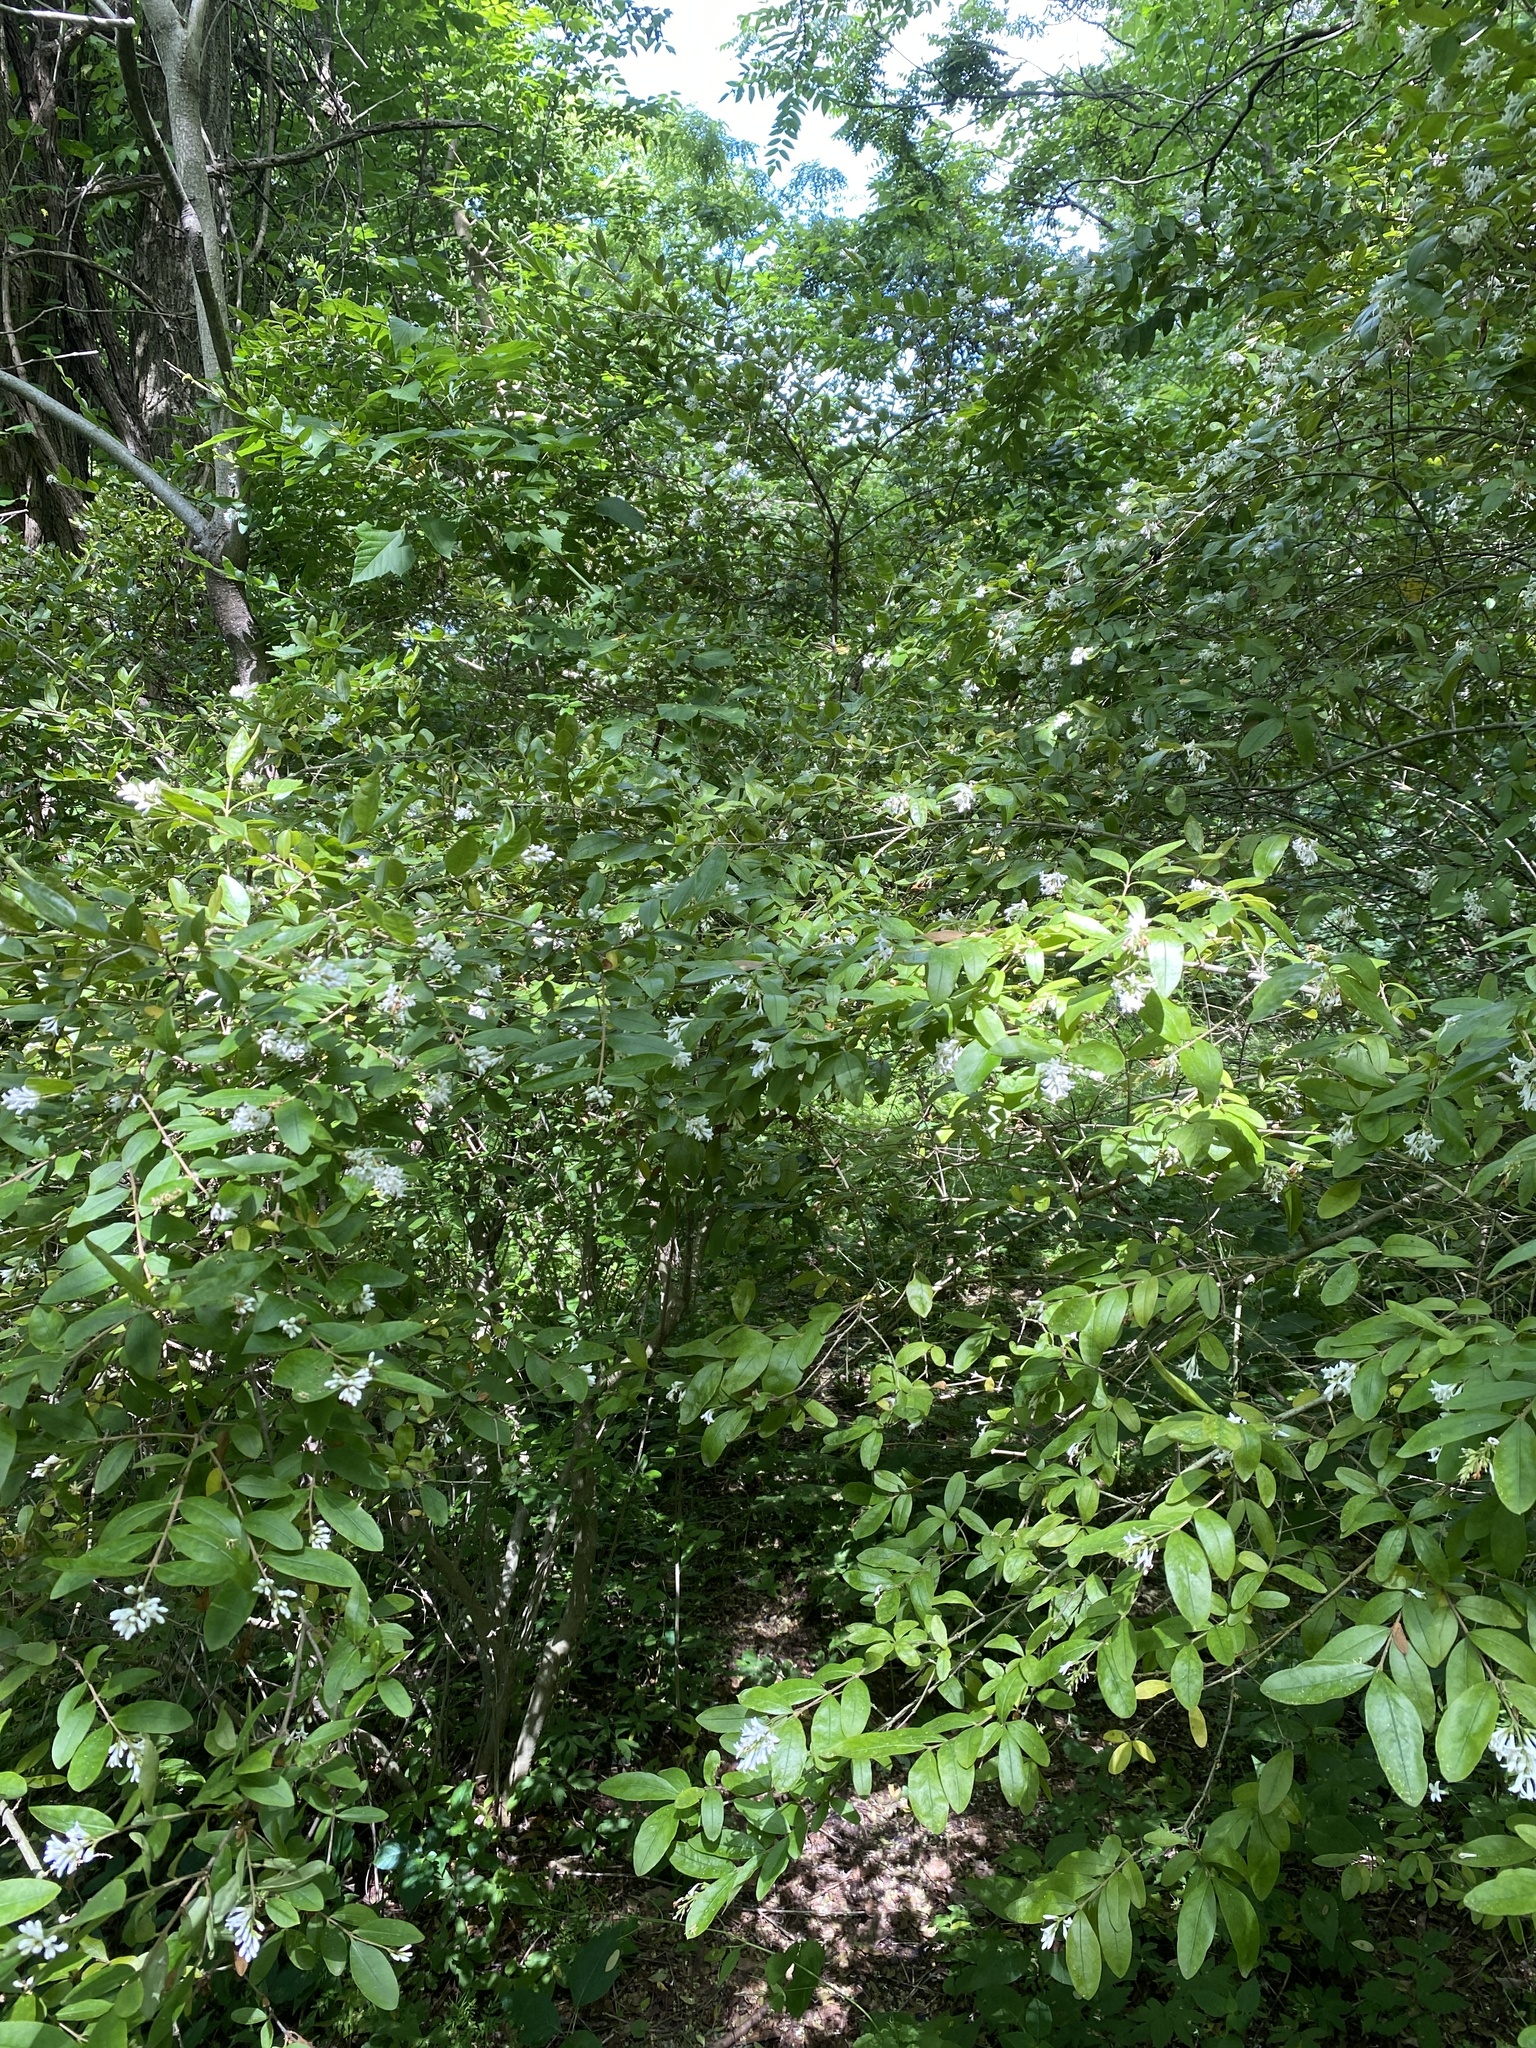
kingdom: Plantae
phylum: Tracheophyta
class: Magnoliopsida
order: Lamiales
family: Oleaceae
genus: Ligustrum
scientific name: Ligustrum obtusifolium
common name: Border privet
